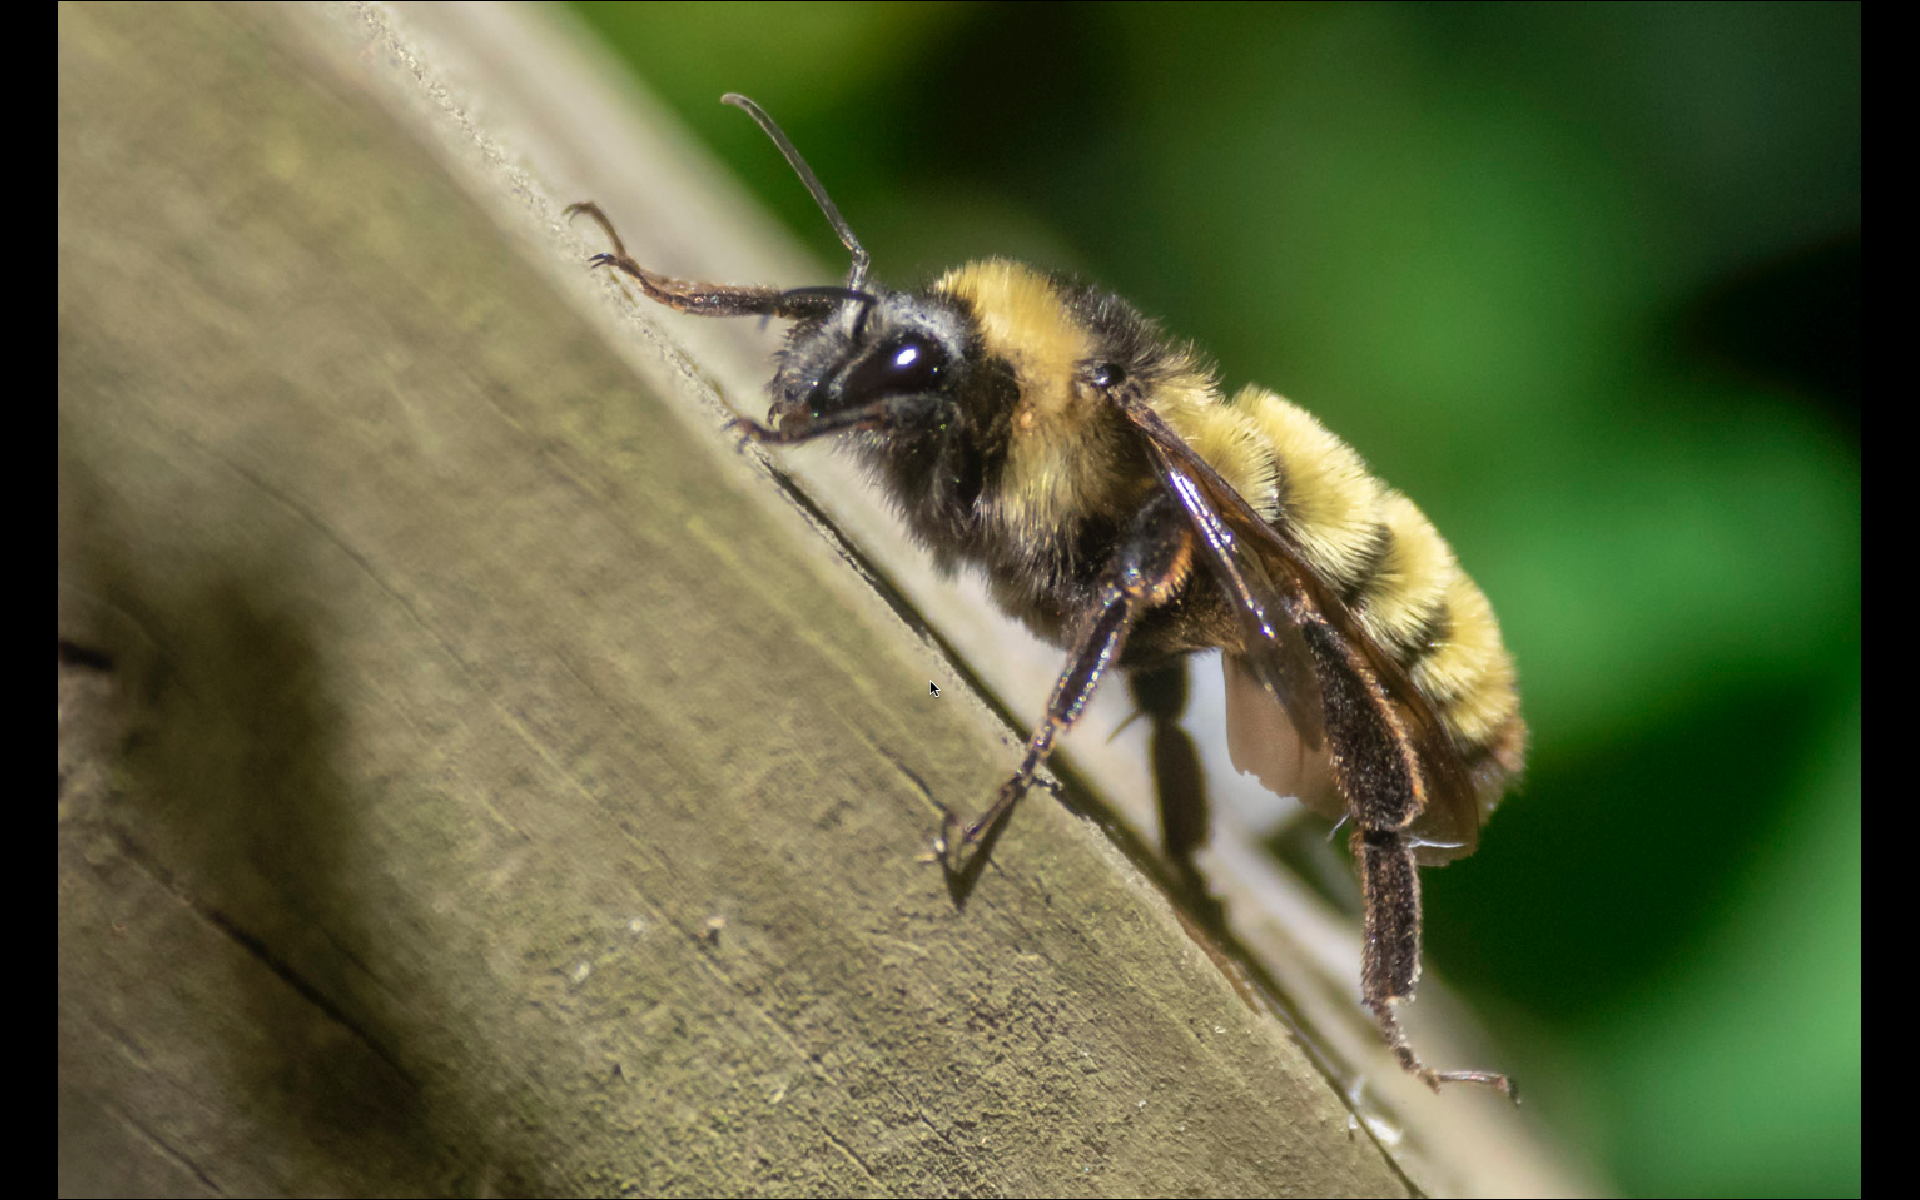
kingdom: Animalia
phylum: Arthropoda
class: Insecta
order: Hymenoptera
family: Apidae
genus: Bombus
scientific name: Bombus pensylvanicus
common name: Bumble bee
